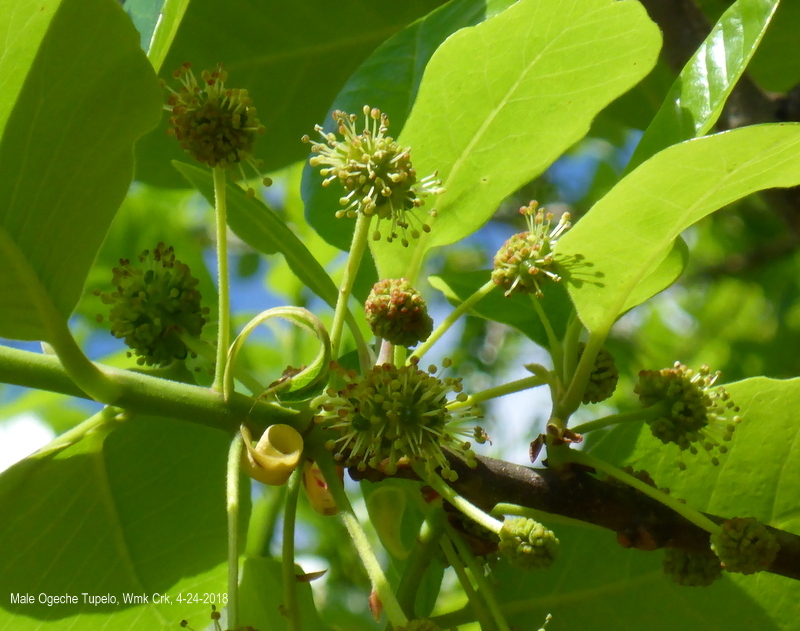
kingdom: Plantae
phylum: Tracheophyta
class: Magnoliopsida
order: Cornales
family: Nyssaceae
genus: Nyssa
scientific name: Nyssa ogeche
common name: Ogeechee tupelo
